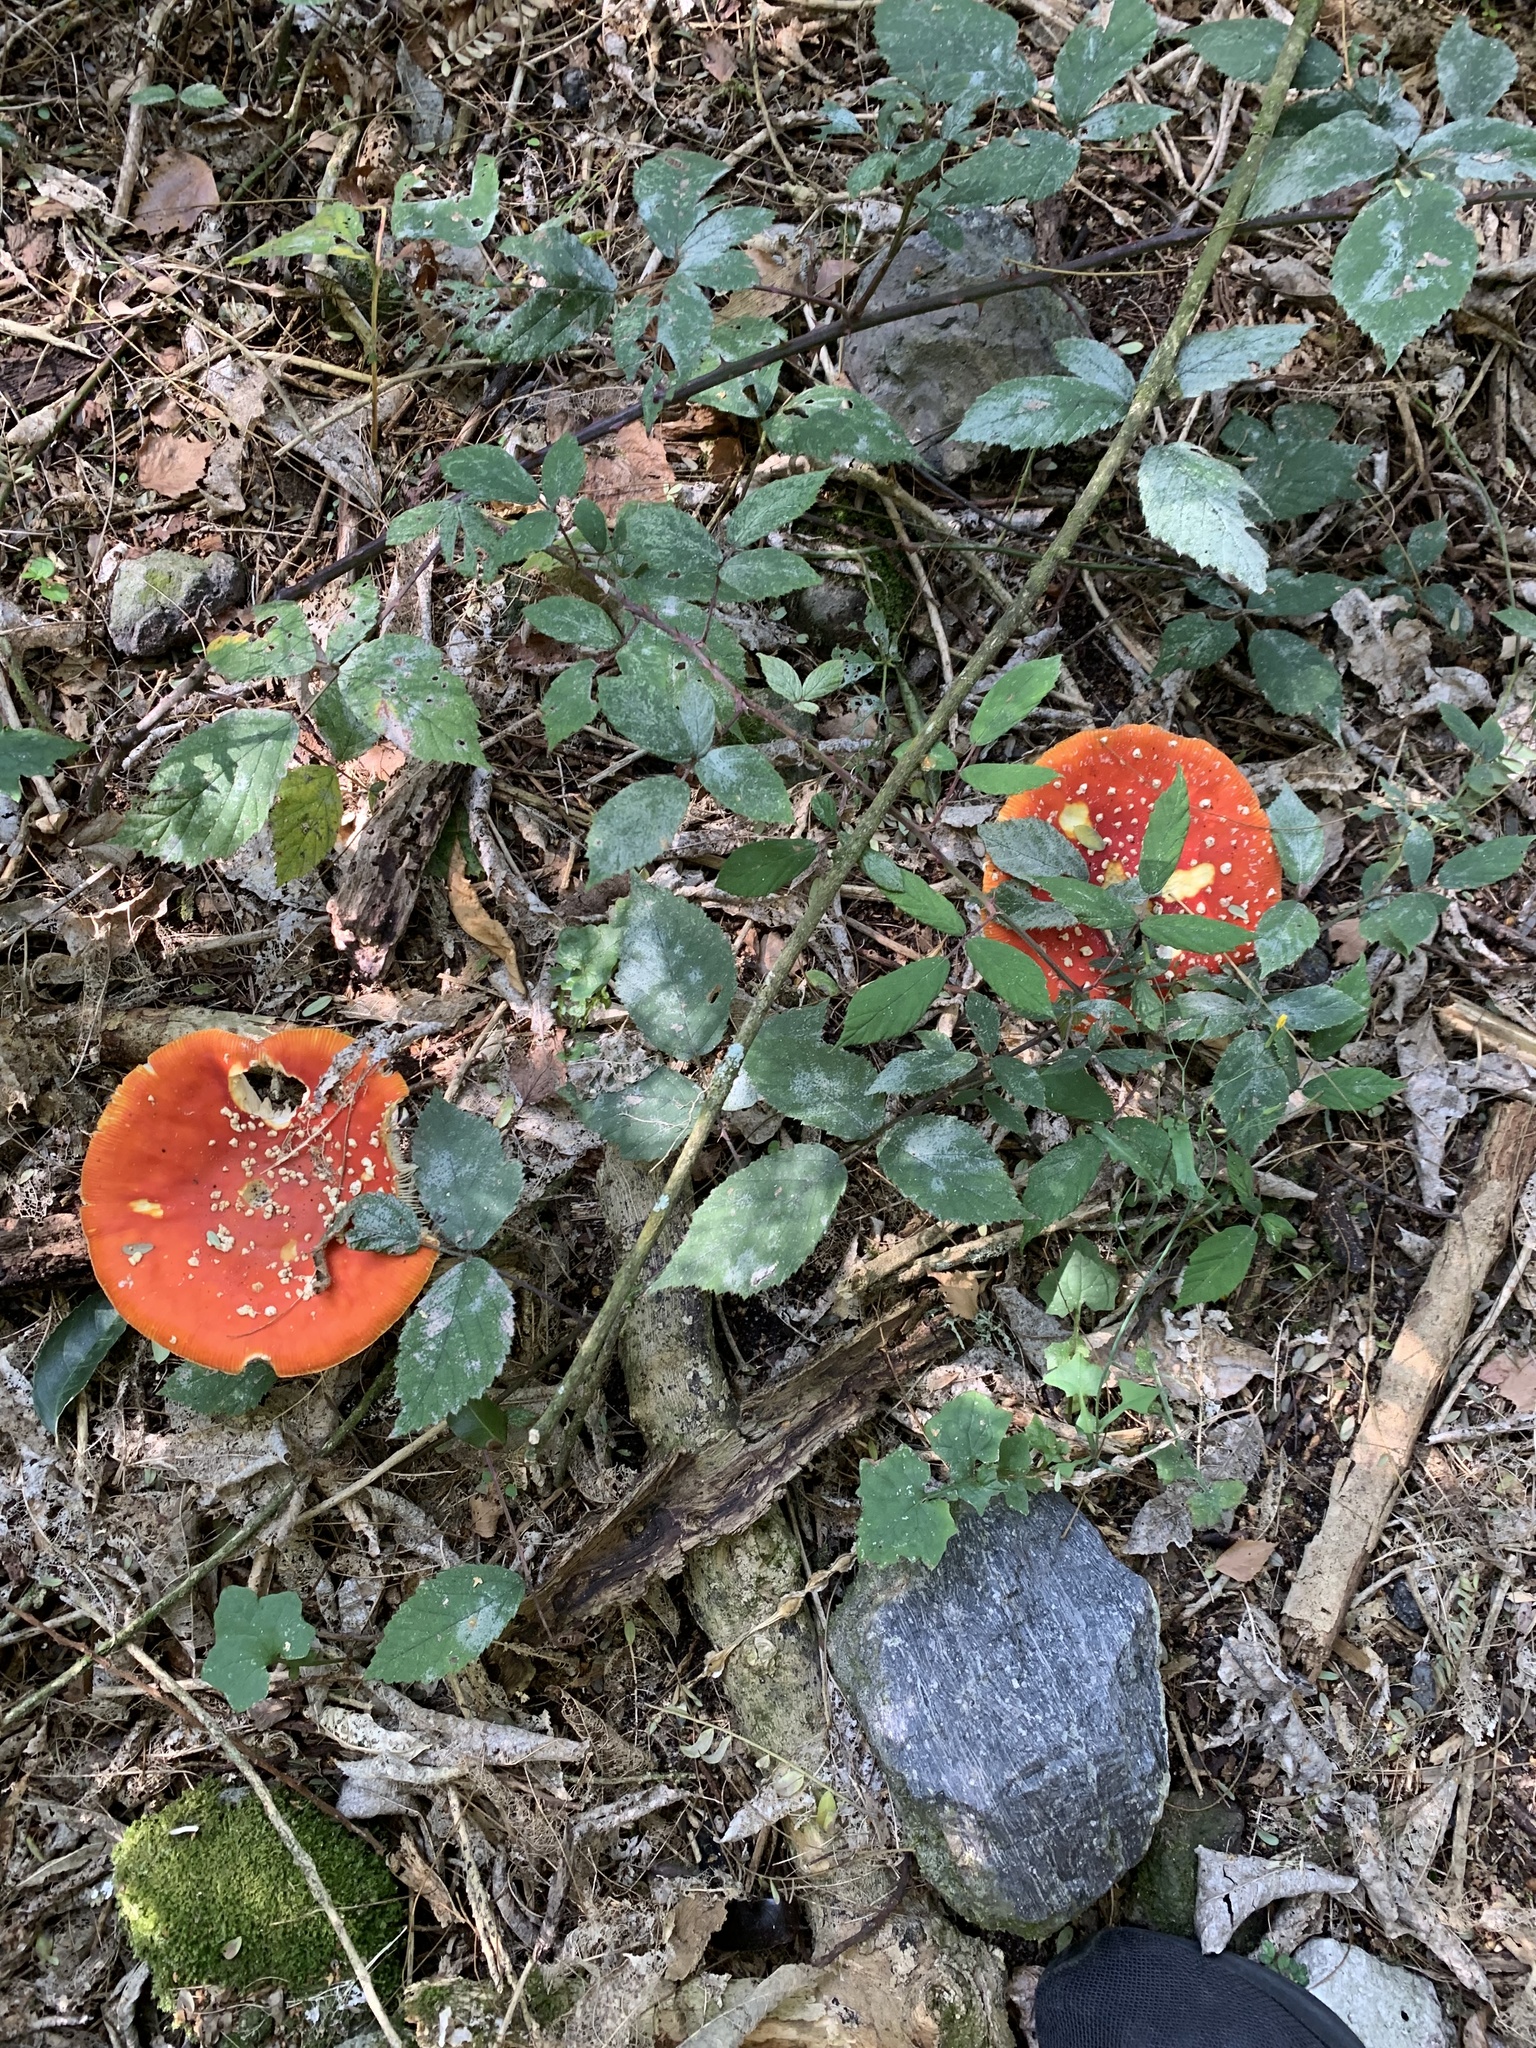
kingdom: Fungi
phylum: Basidiomycota
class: Agaricomycetes
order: Agaricales
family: Amanitaceae
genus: Amanita
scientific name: Amanita muscaria
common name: Fly agaric
